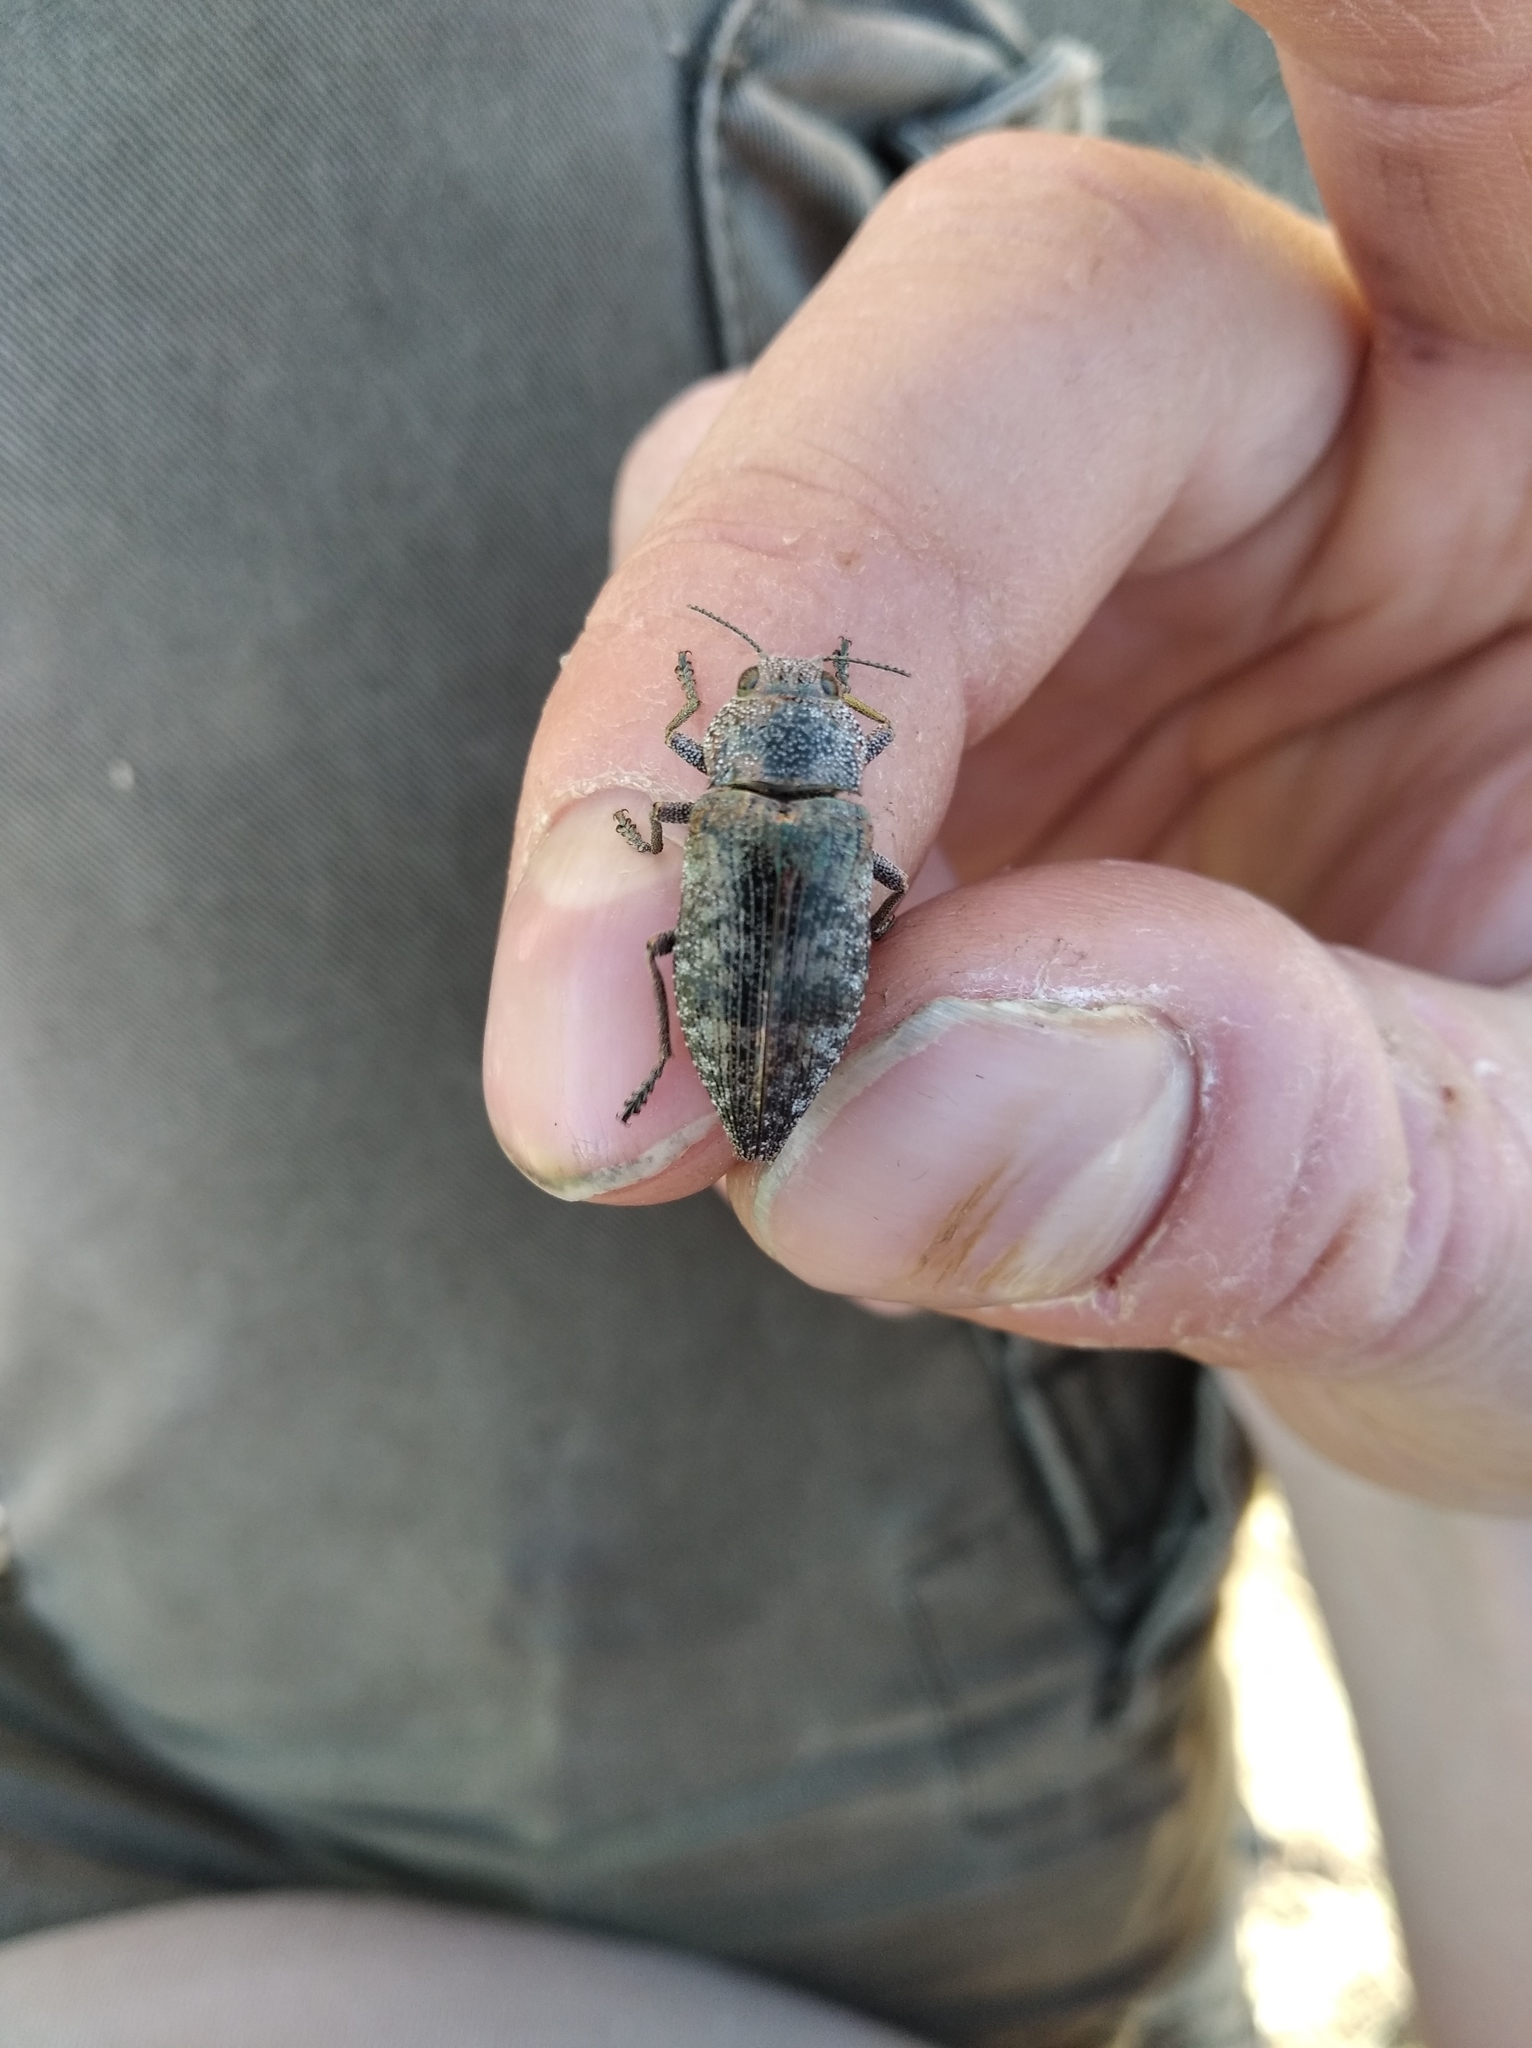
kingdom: Animalia
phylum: Arthropoda
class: Insecta
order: Coleoptera
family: Buprestidae
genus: Dicerca
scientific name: Dicerca aenea
